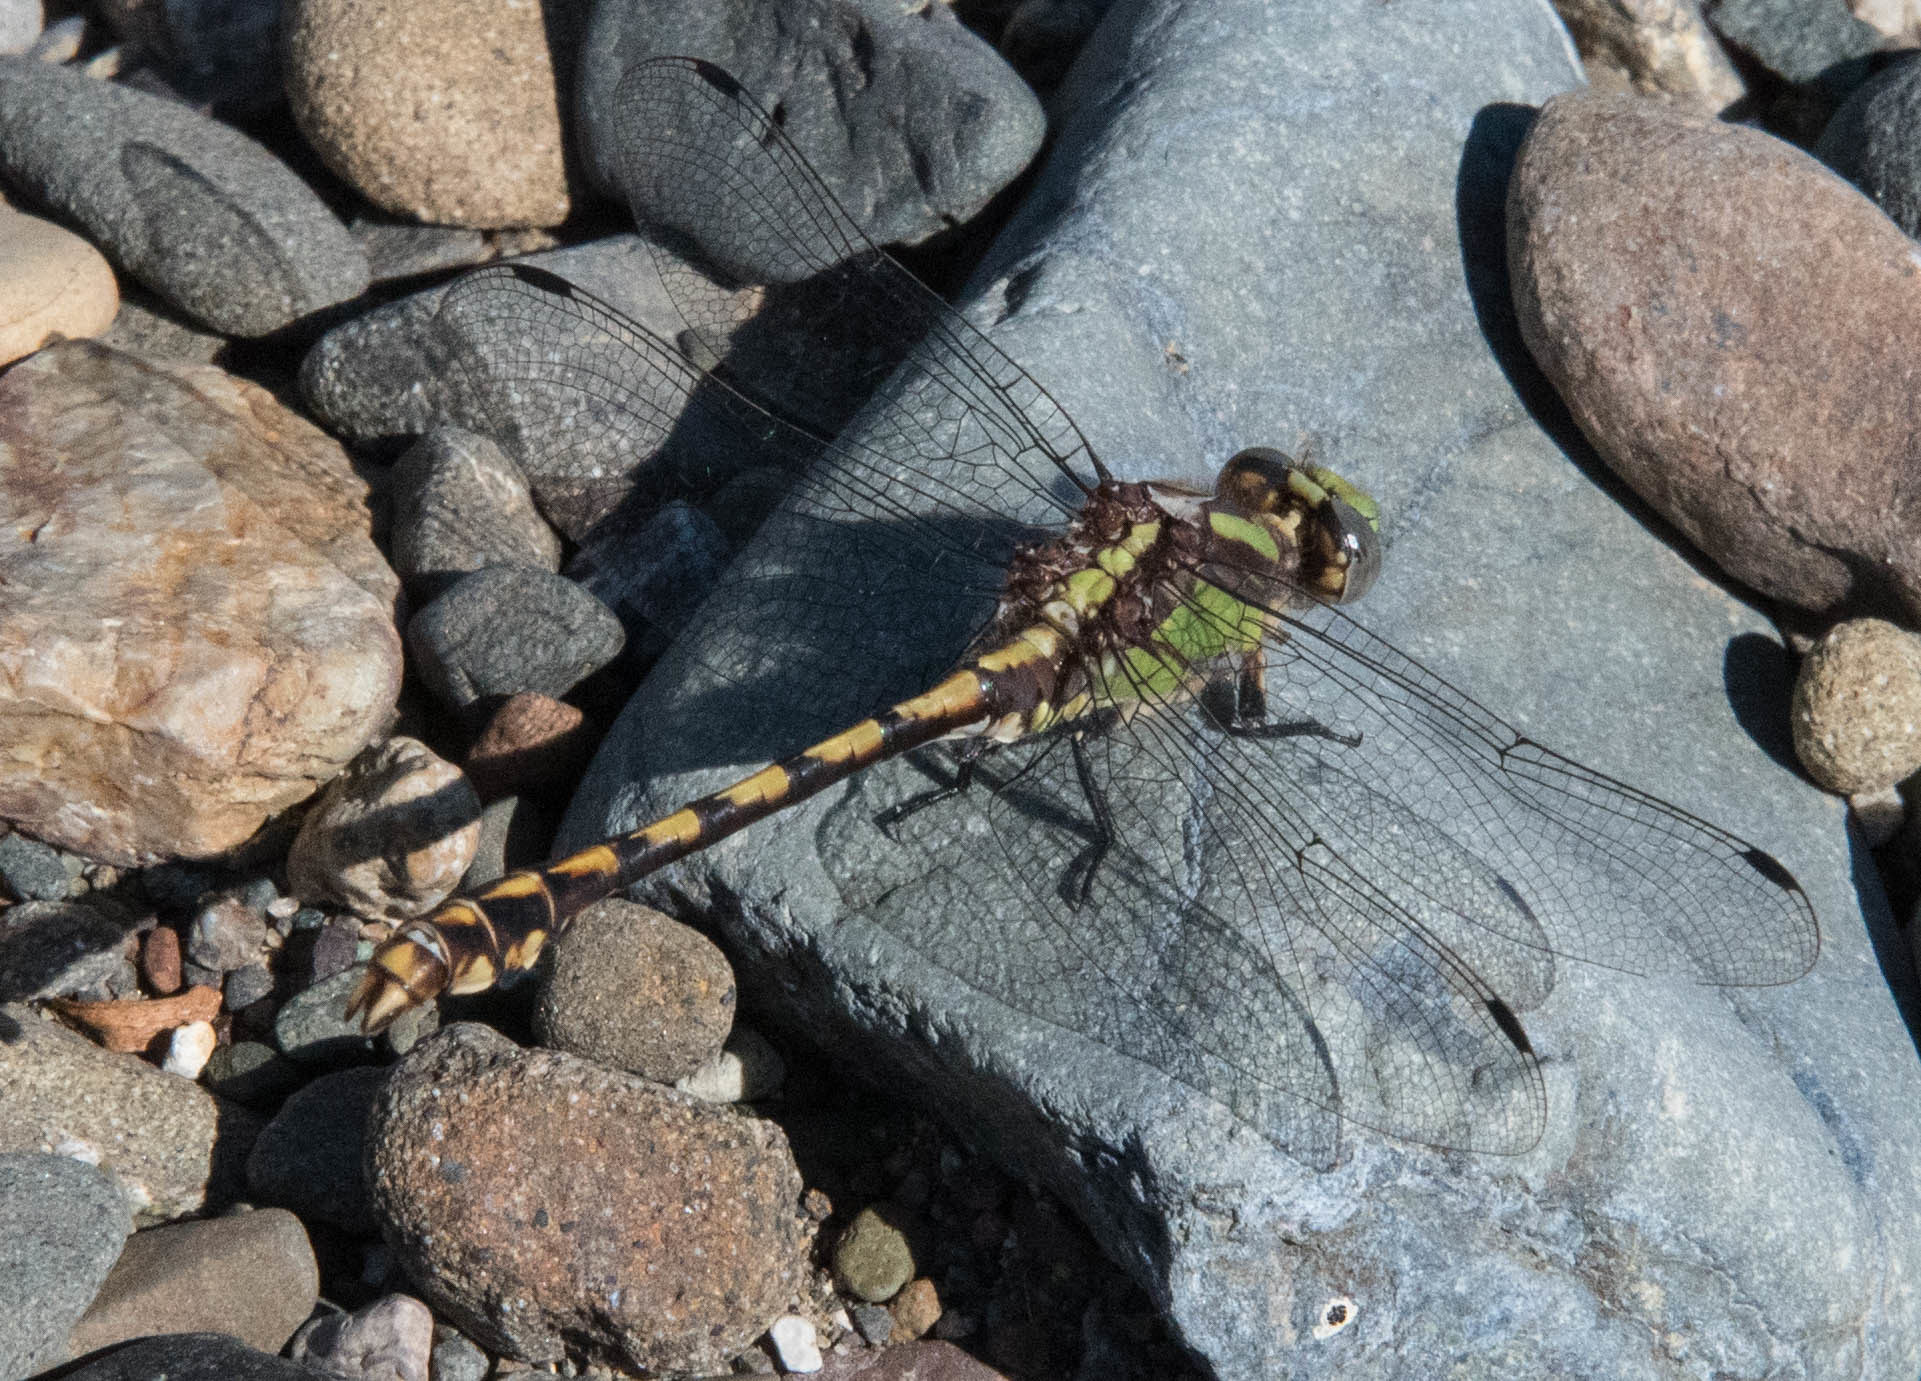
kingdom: Animalia
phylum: Arthropoda
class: Insecta
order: Odonata
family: Gomphidae
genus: Ophiogomphus
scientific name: Ophiogomphus bison
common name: Bison snaketail
